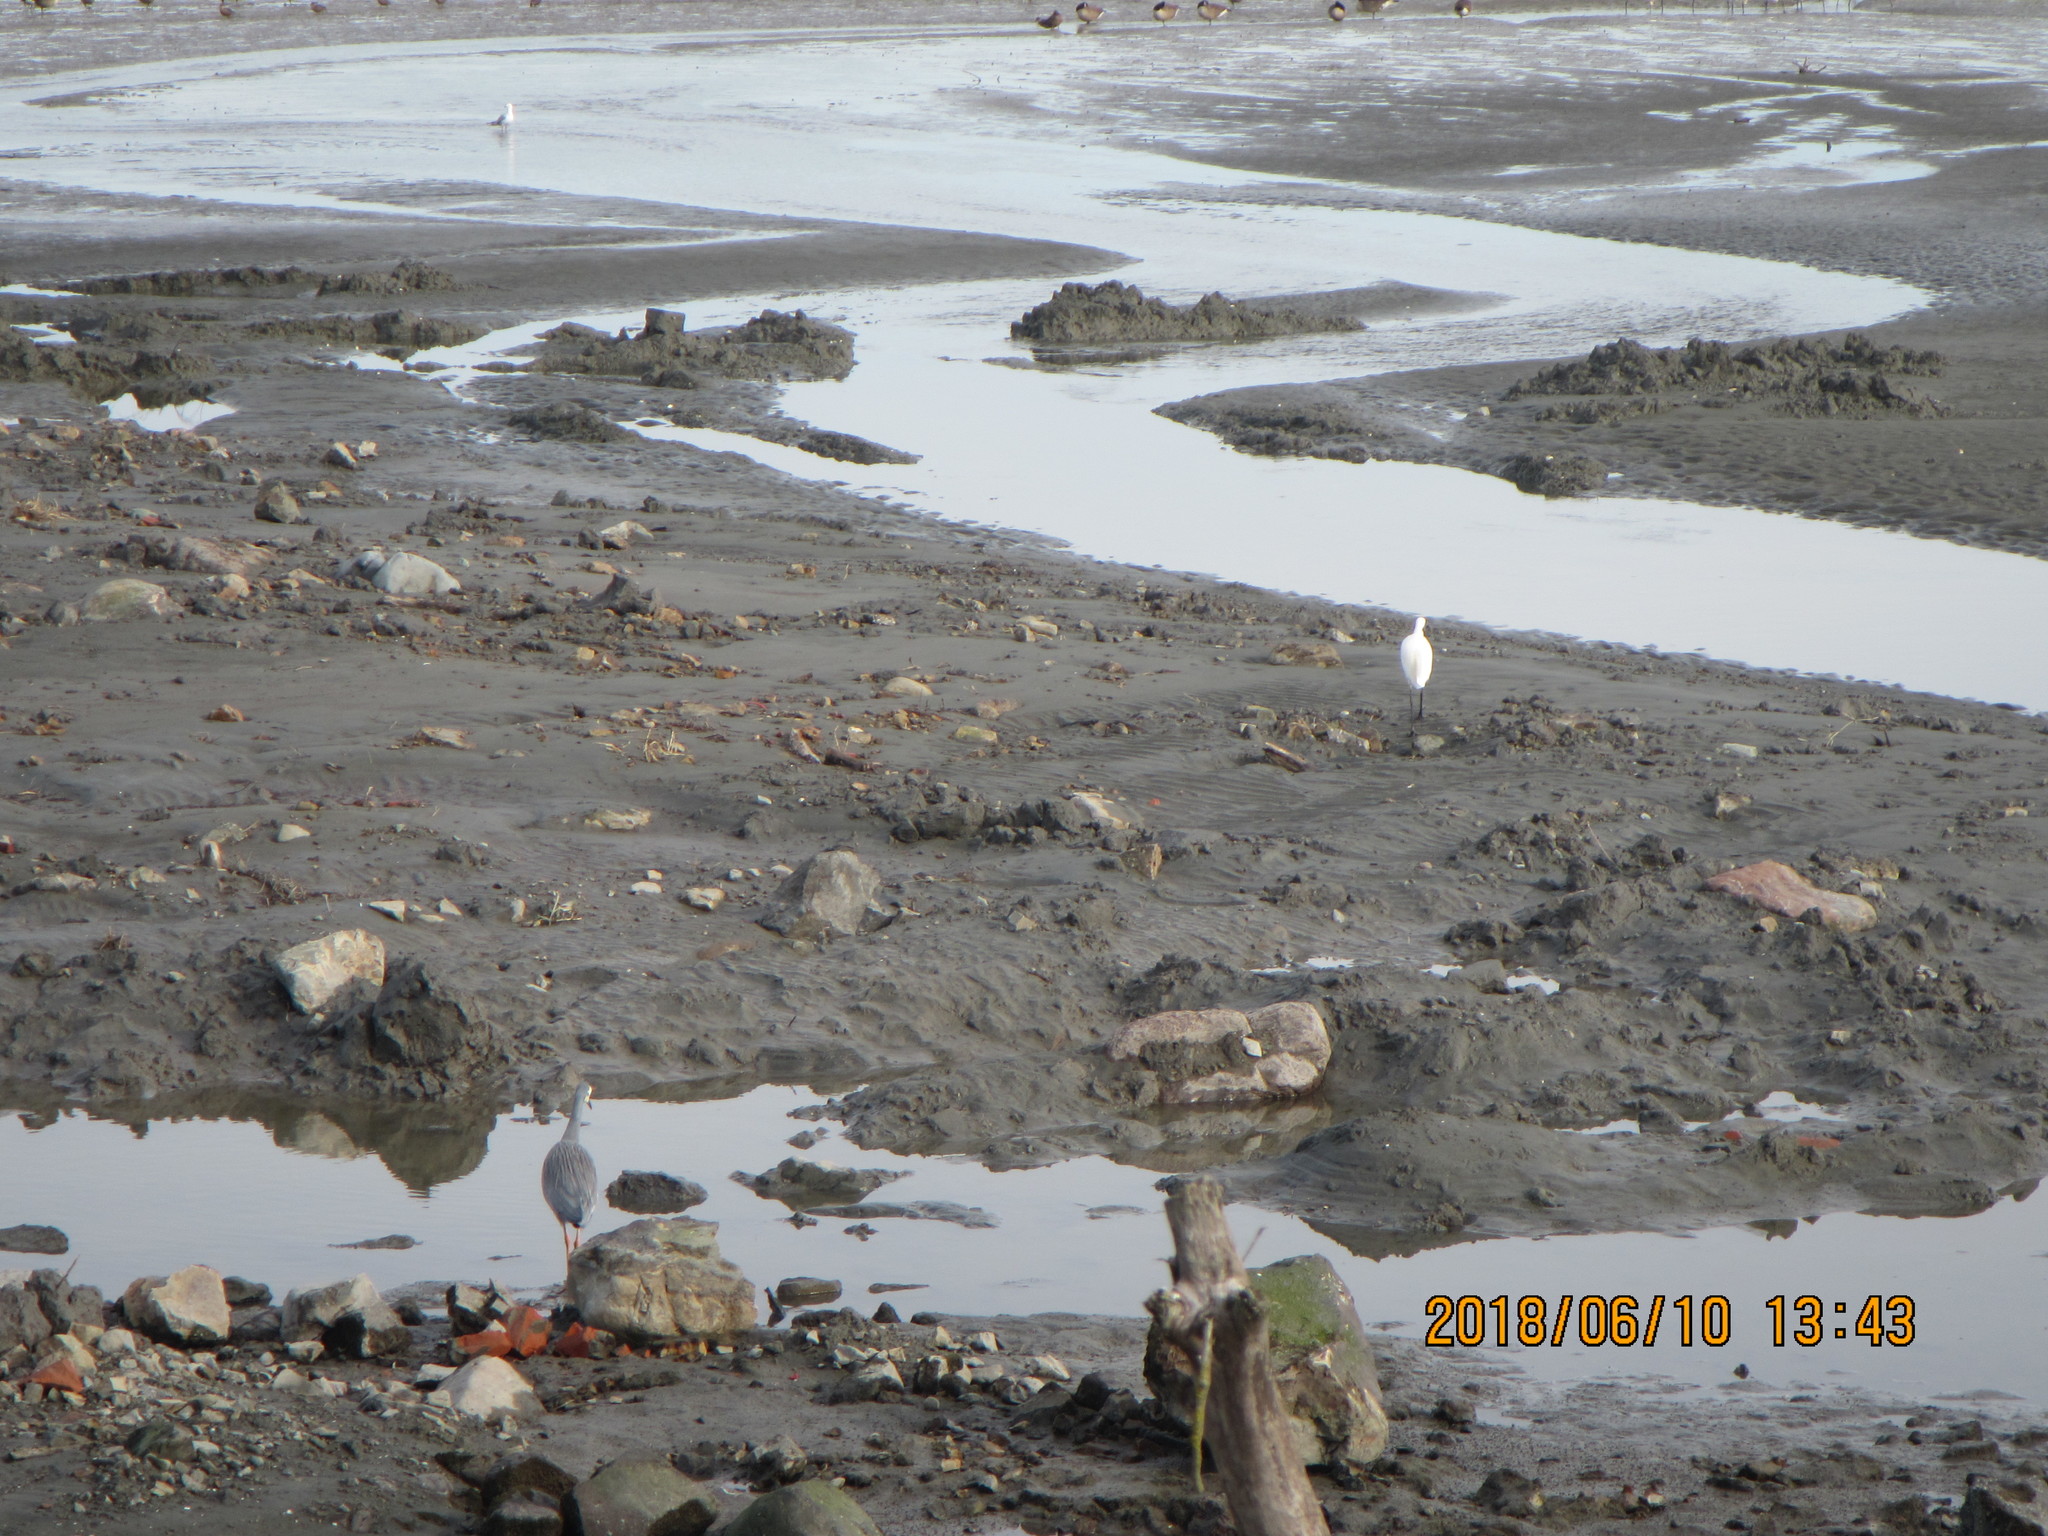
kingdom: Animalia
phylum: Chordata
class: Aves
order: Pelecaniformes
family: Ardeidae
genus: Egretta
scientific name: Egretta garzetta
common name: Little egret
